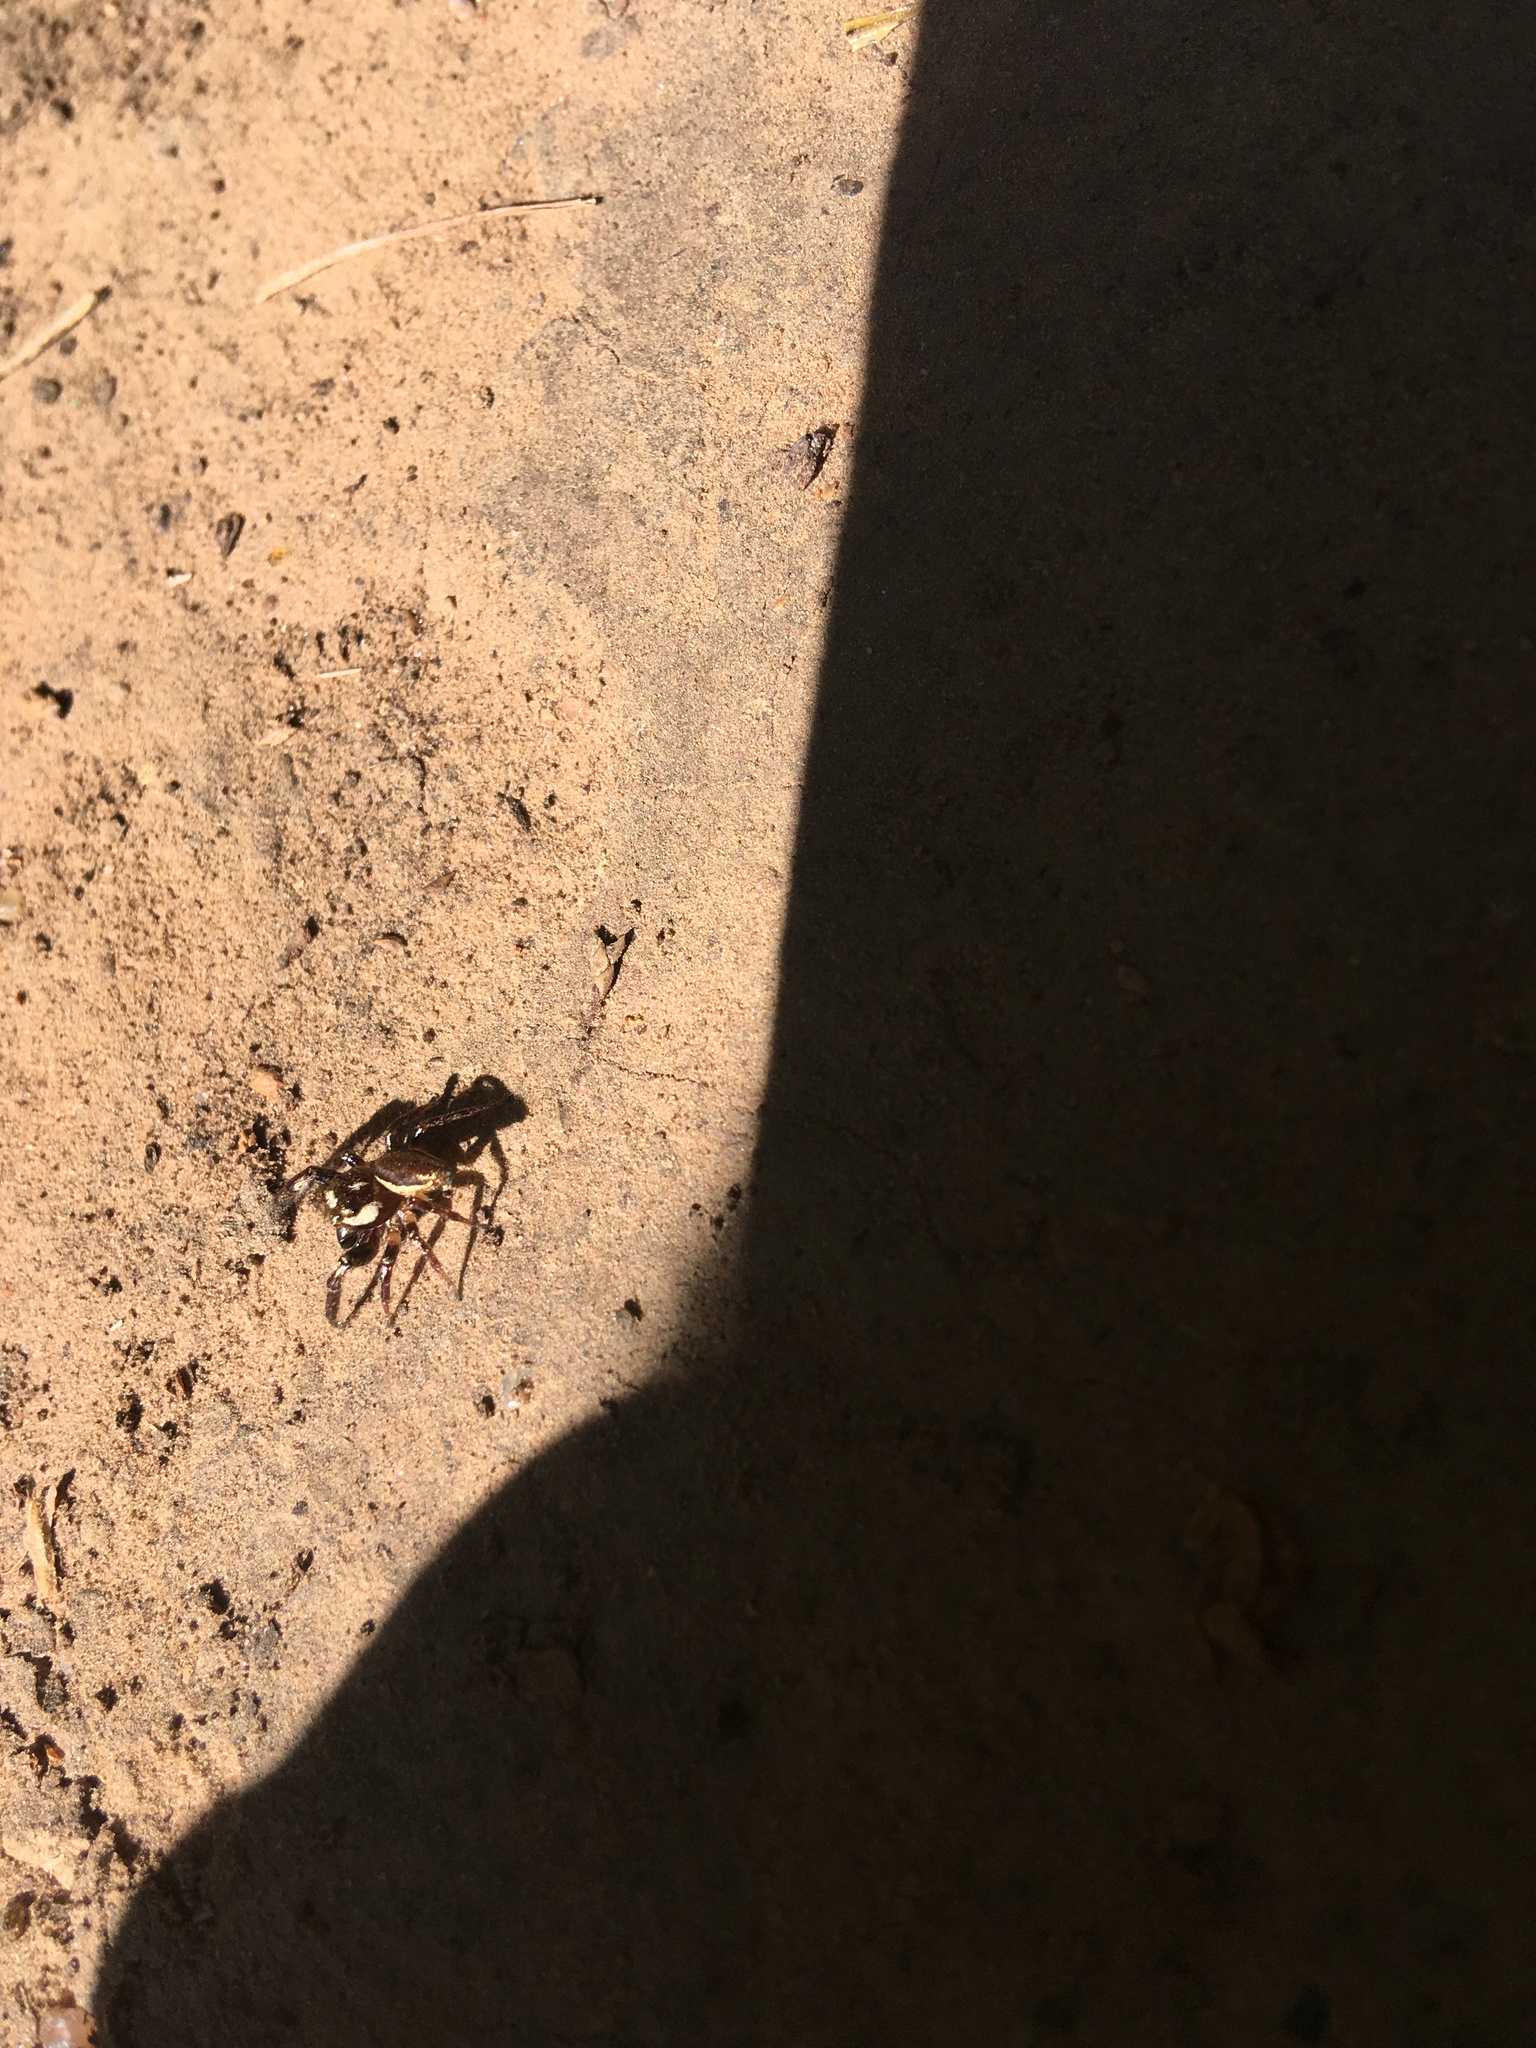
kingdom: Animalia
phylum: Arthropoda
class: Arachnida
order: Araneae
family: Salticidae
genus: Eris
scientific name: Eris militaris
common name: Bronze jumper
